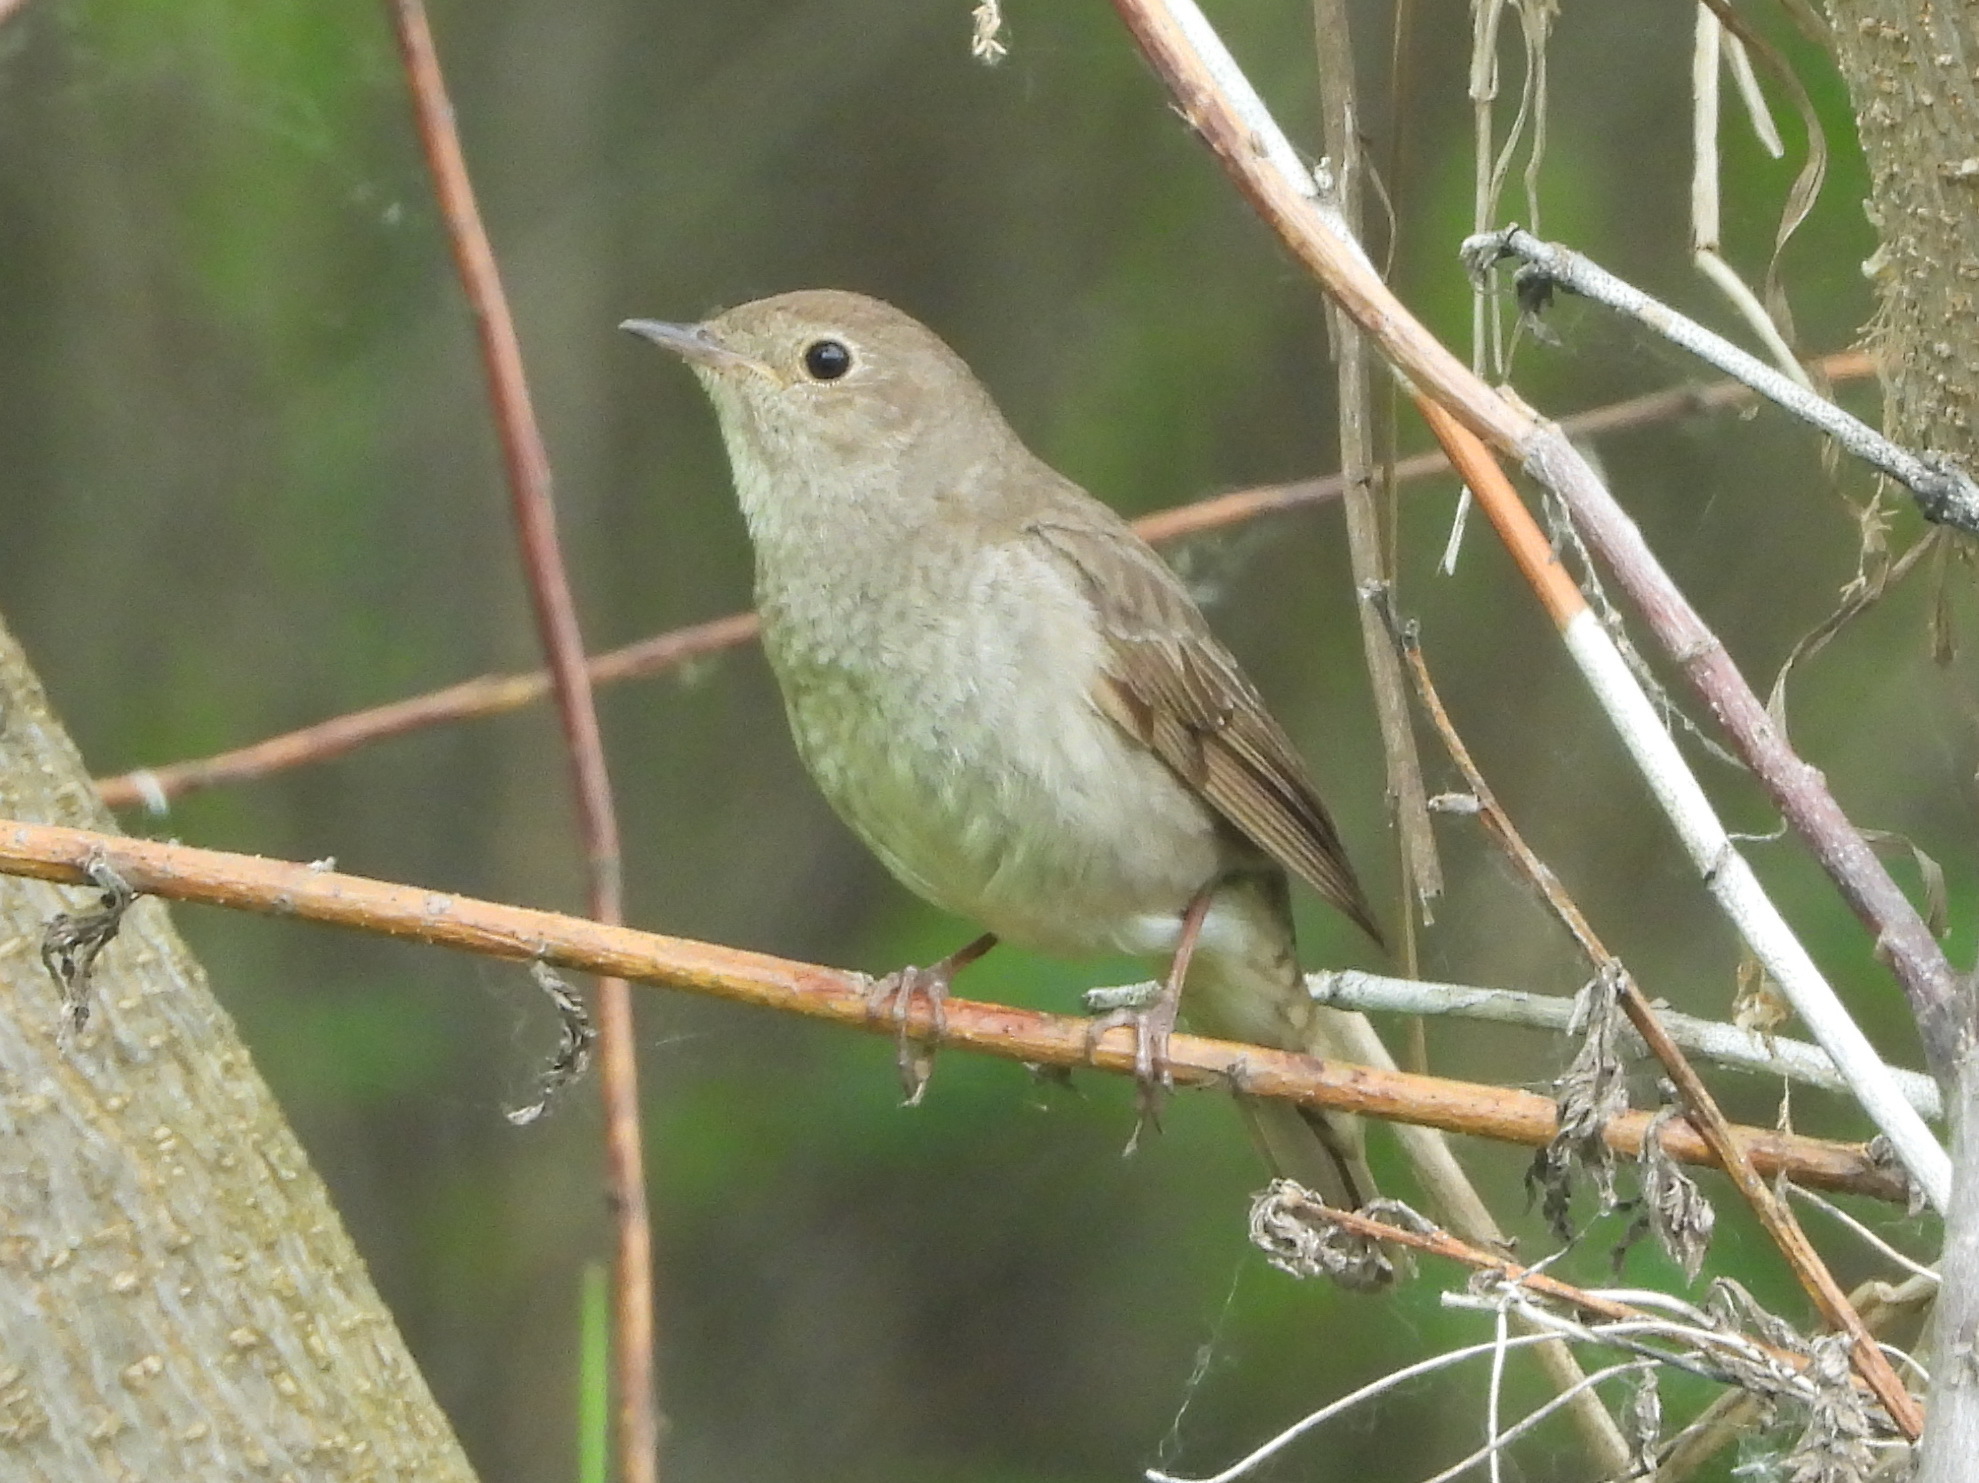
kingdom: Animalia
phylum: Chordata
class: Aves
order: Passeriformes
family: Muscicapidae
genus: Luscinia
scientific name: Luscinia luscinia
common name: Thrush nightingale
